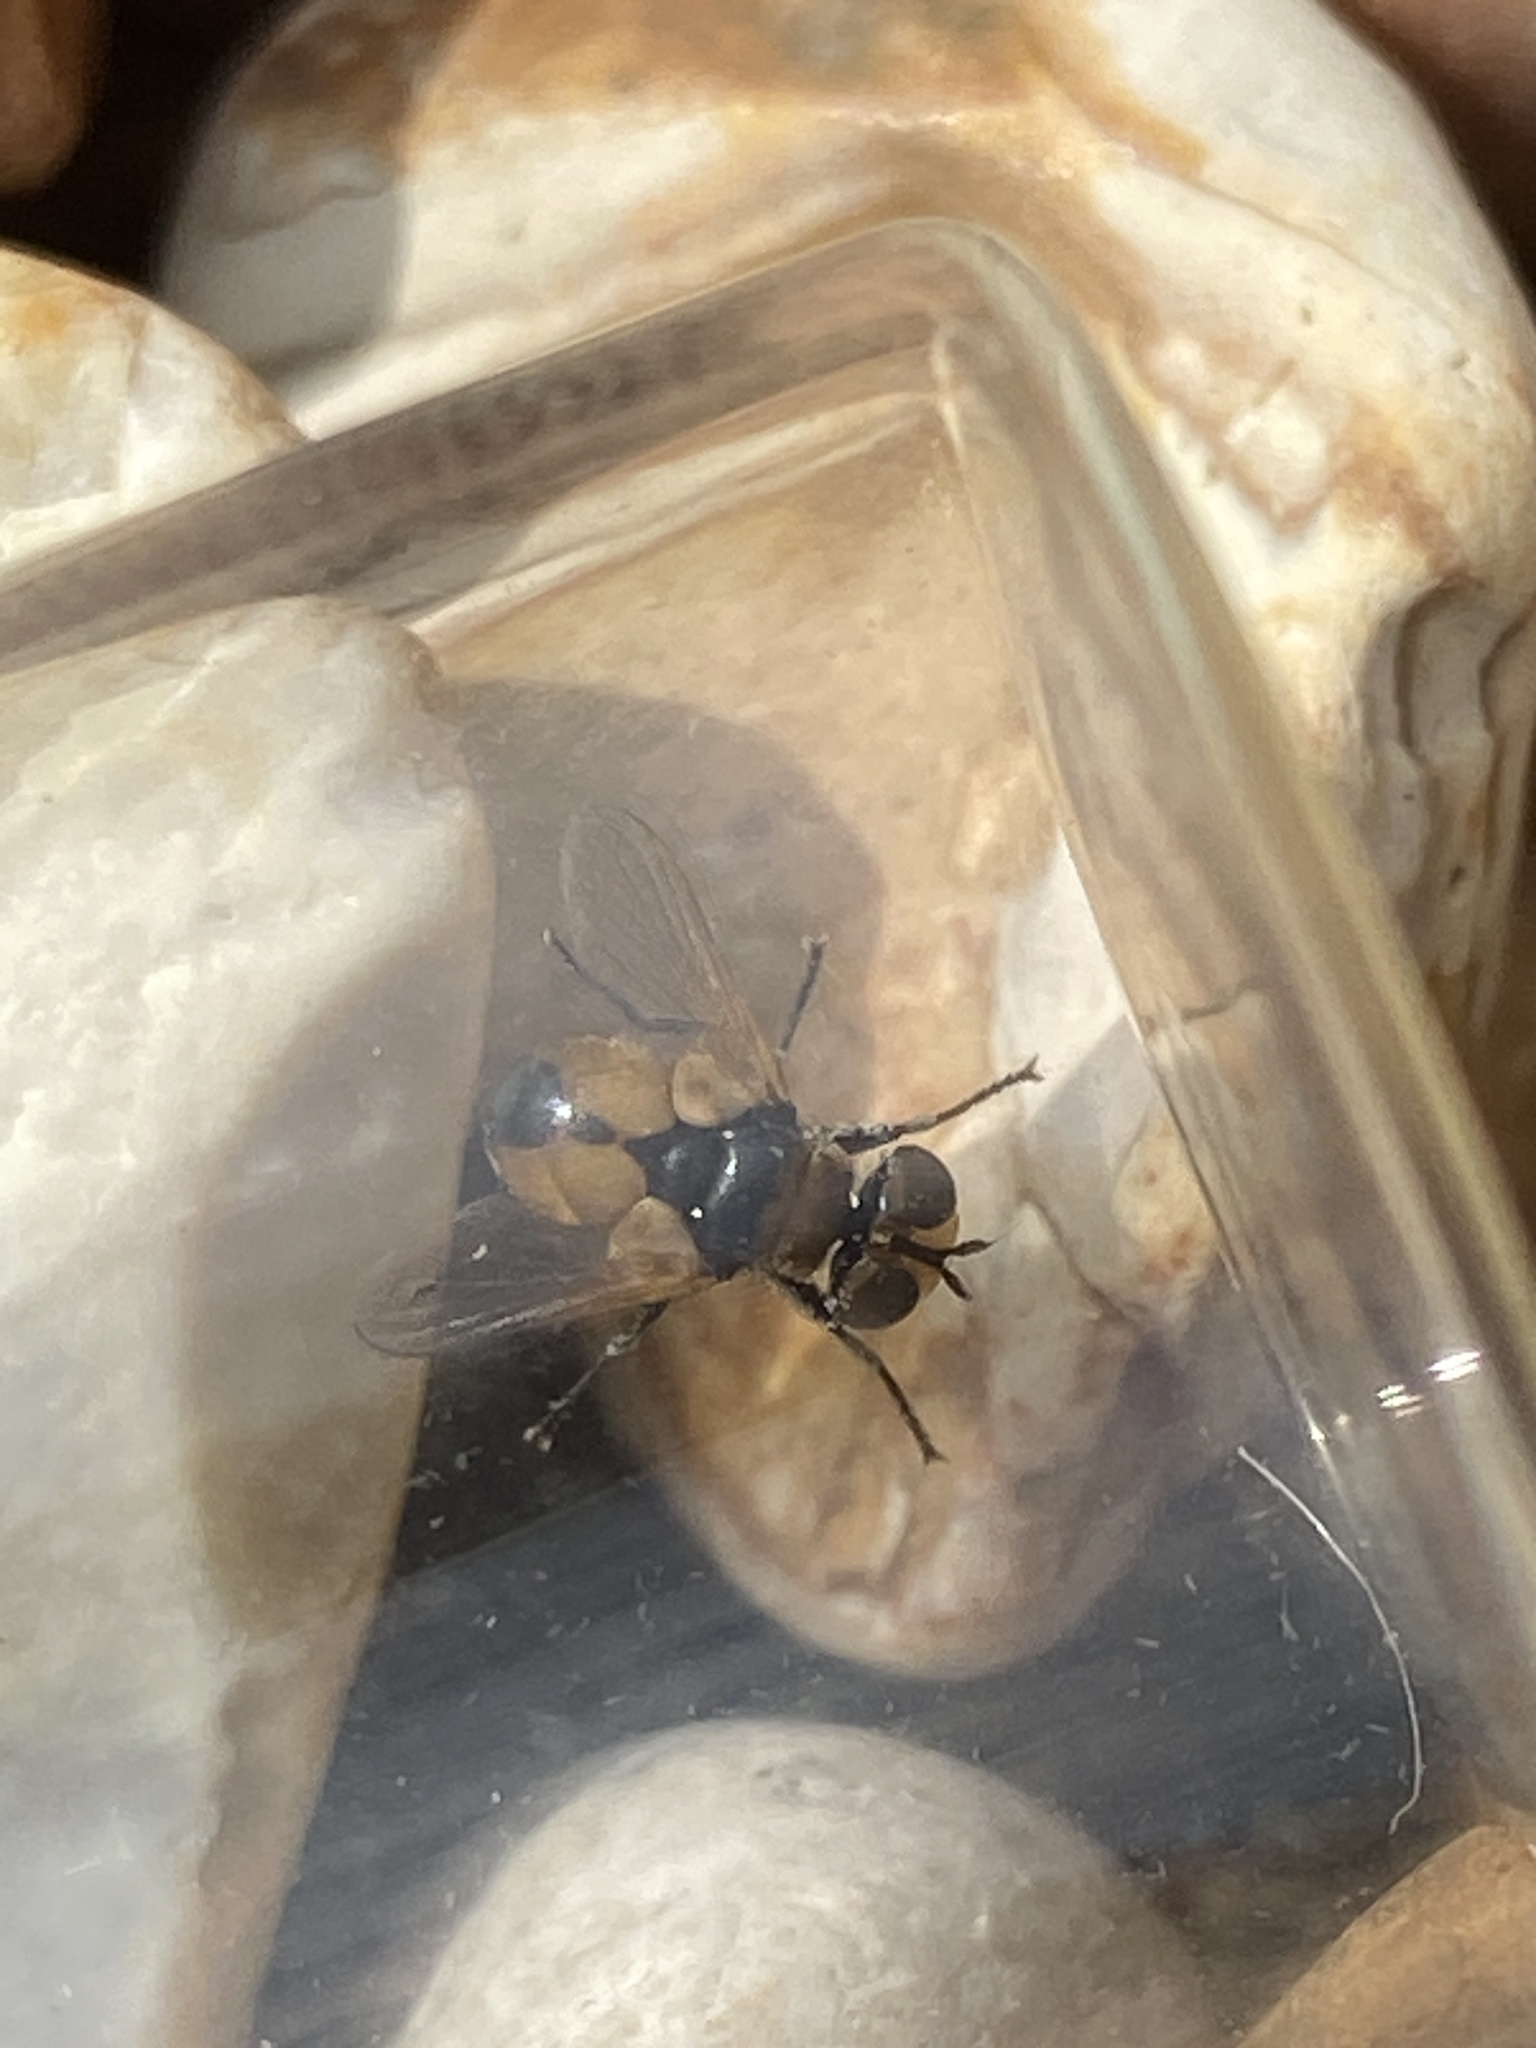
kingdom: Animalia
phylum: Arthropoda
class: Insecta
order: Diptera
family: Tachinidae
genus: Cistogaster
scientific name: Cistogaster globosa
